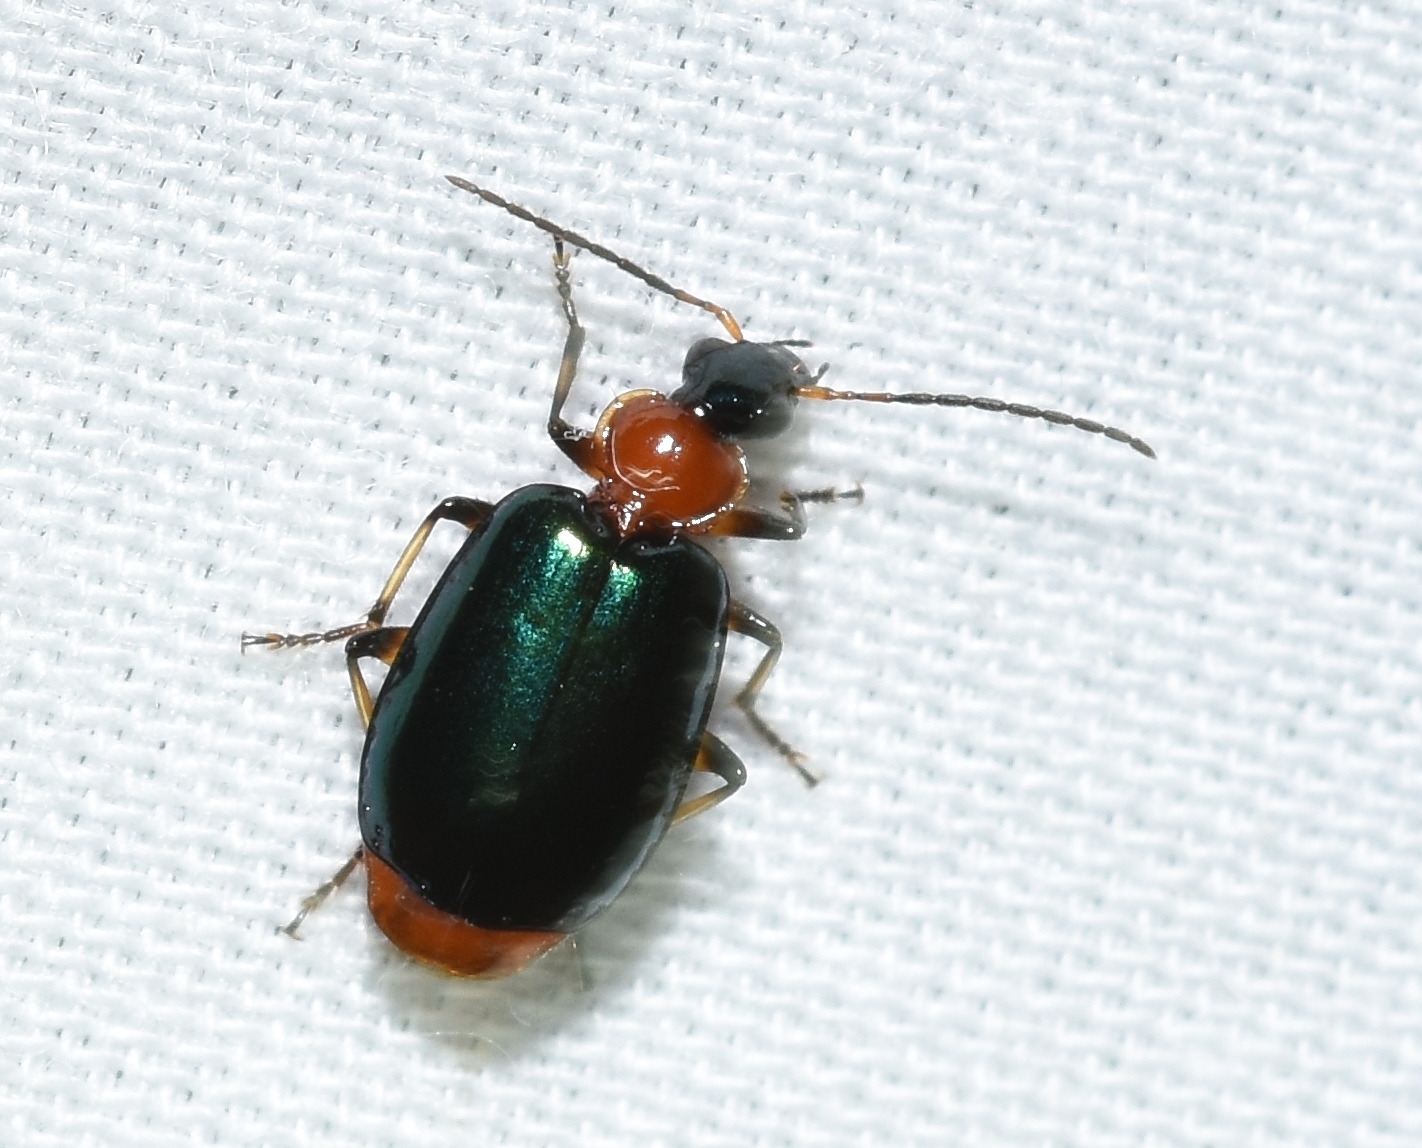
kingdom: Animalia
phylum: Arthropoda
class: Insecta
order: Coleoptera
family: Carabidae
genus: Lebia
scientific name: Lebia viridipennis
